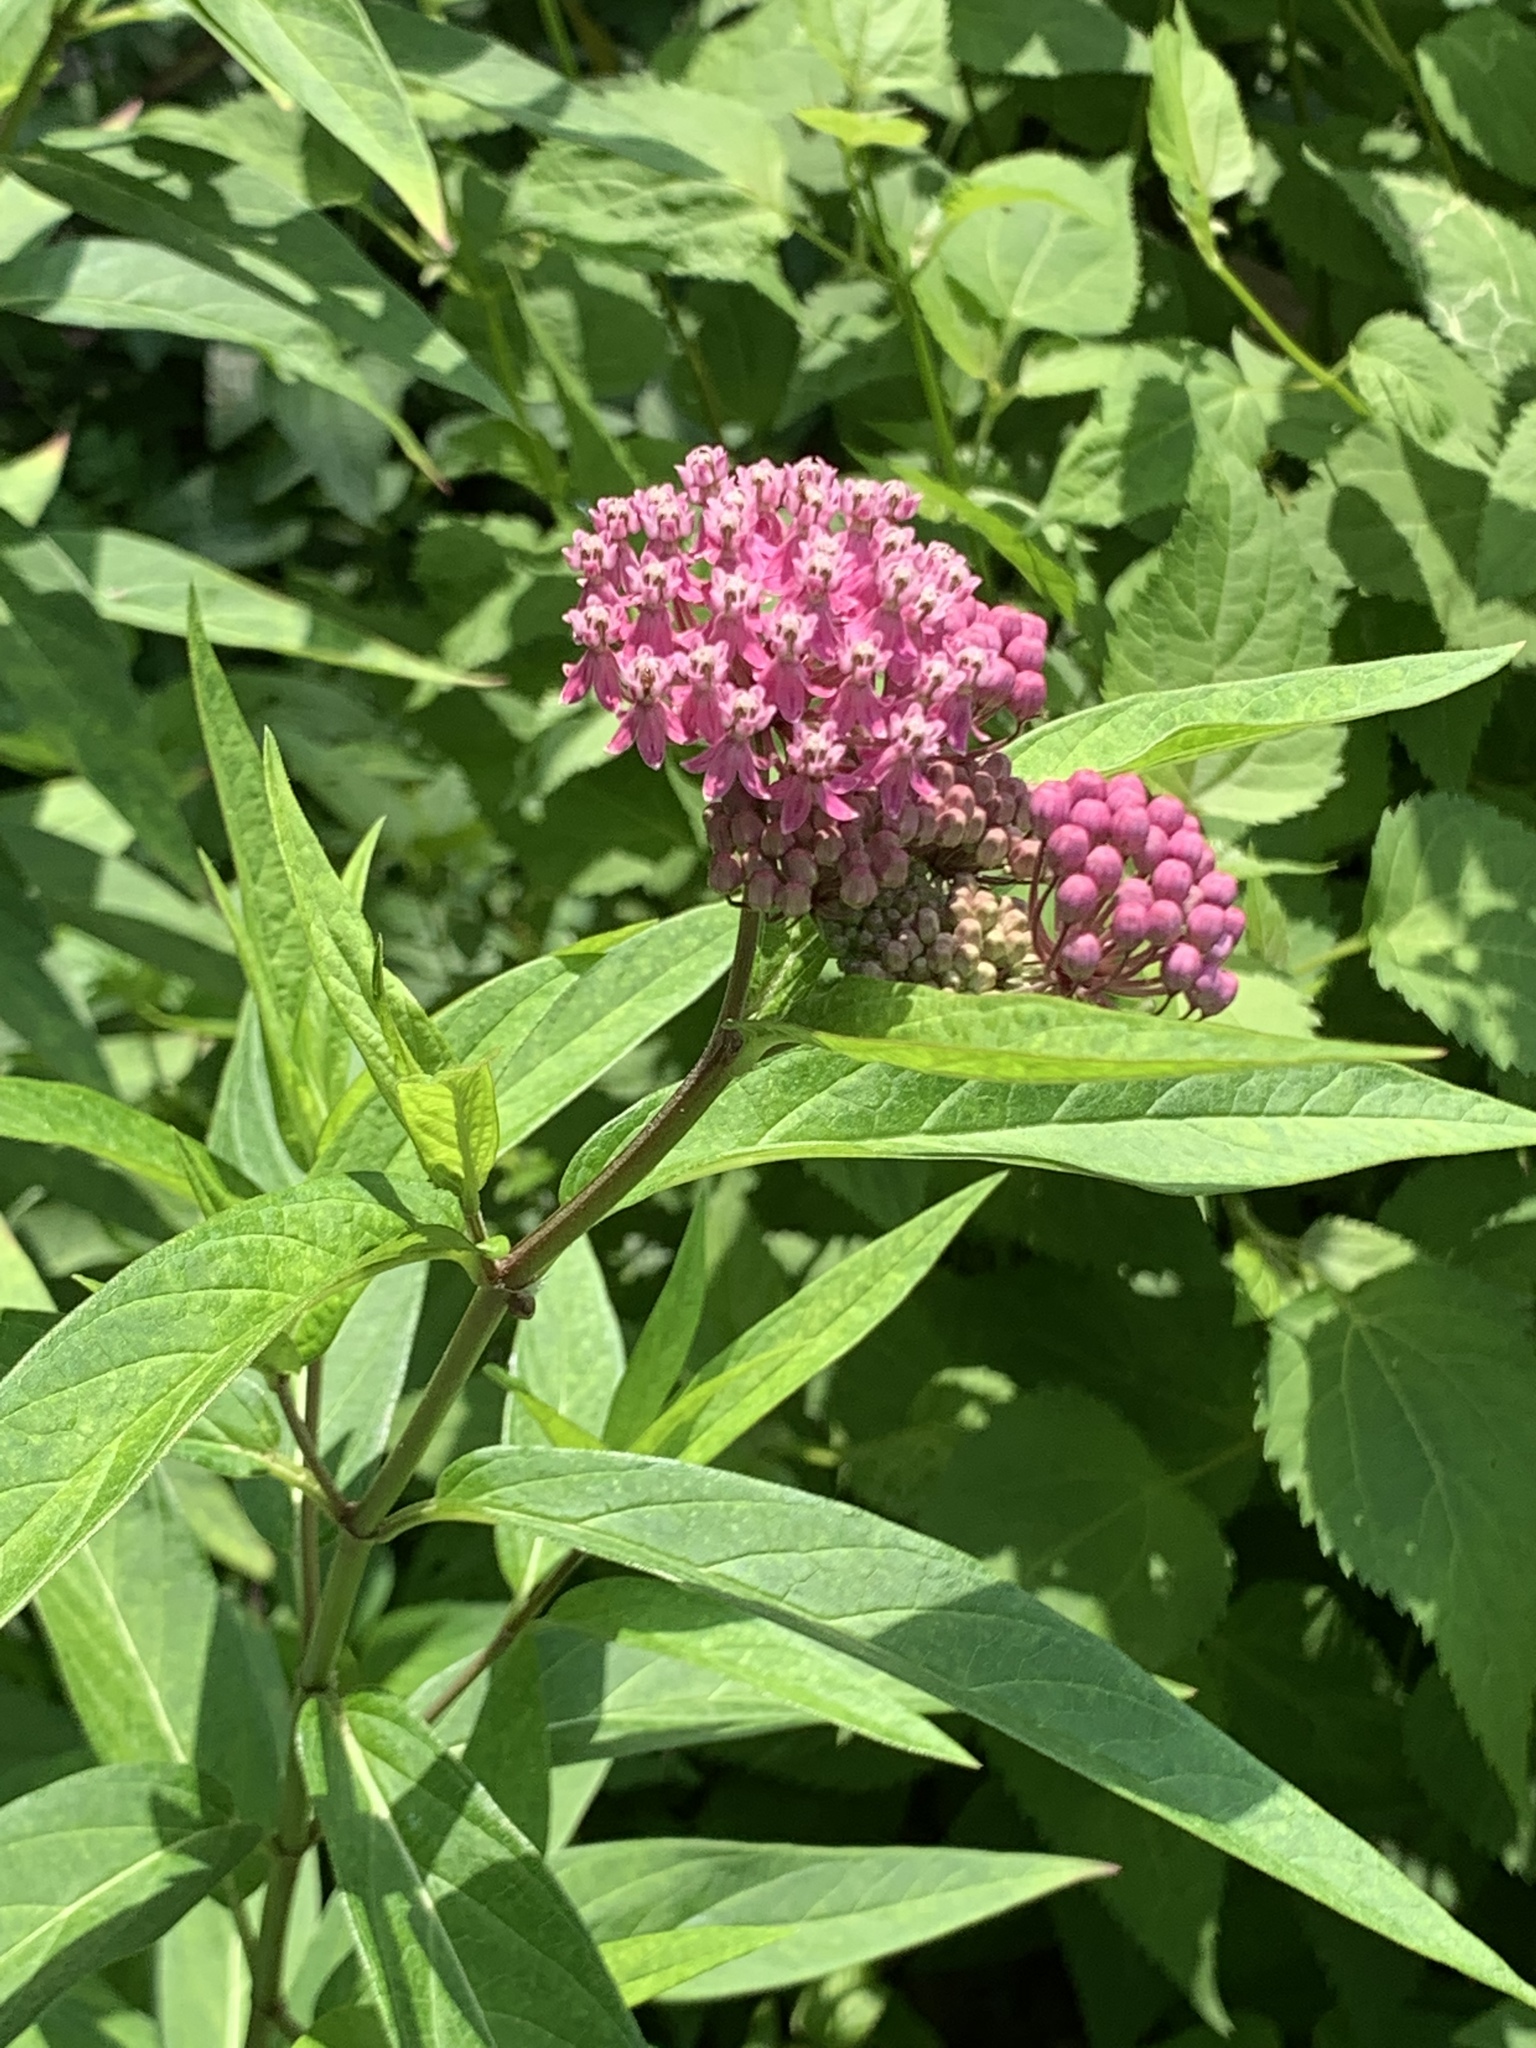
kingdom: Plantae
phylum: Tracheophyta
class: Magnoliopsida
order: Gentianales
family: Apocynaceae
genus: Asclepias
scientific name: Asclepias incarnata
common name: Swamp milkweed
